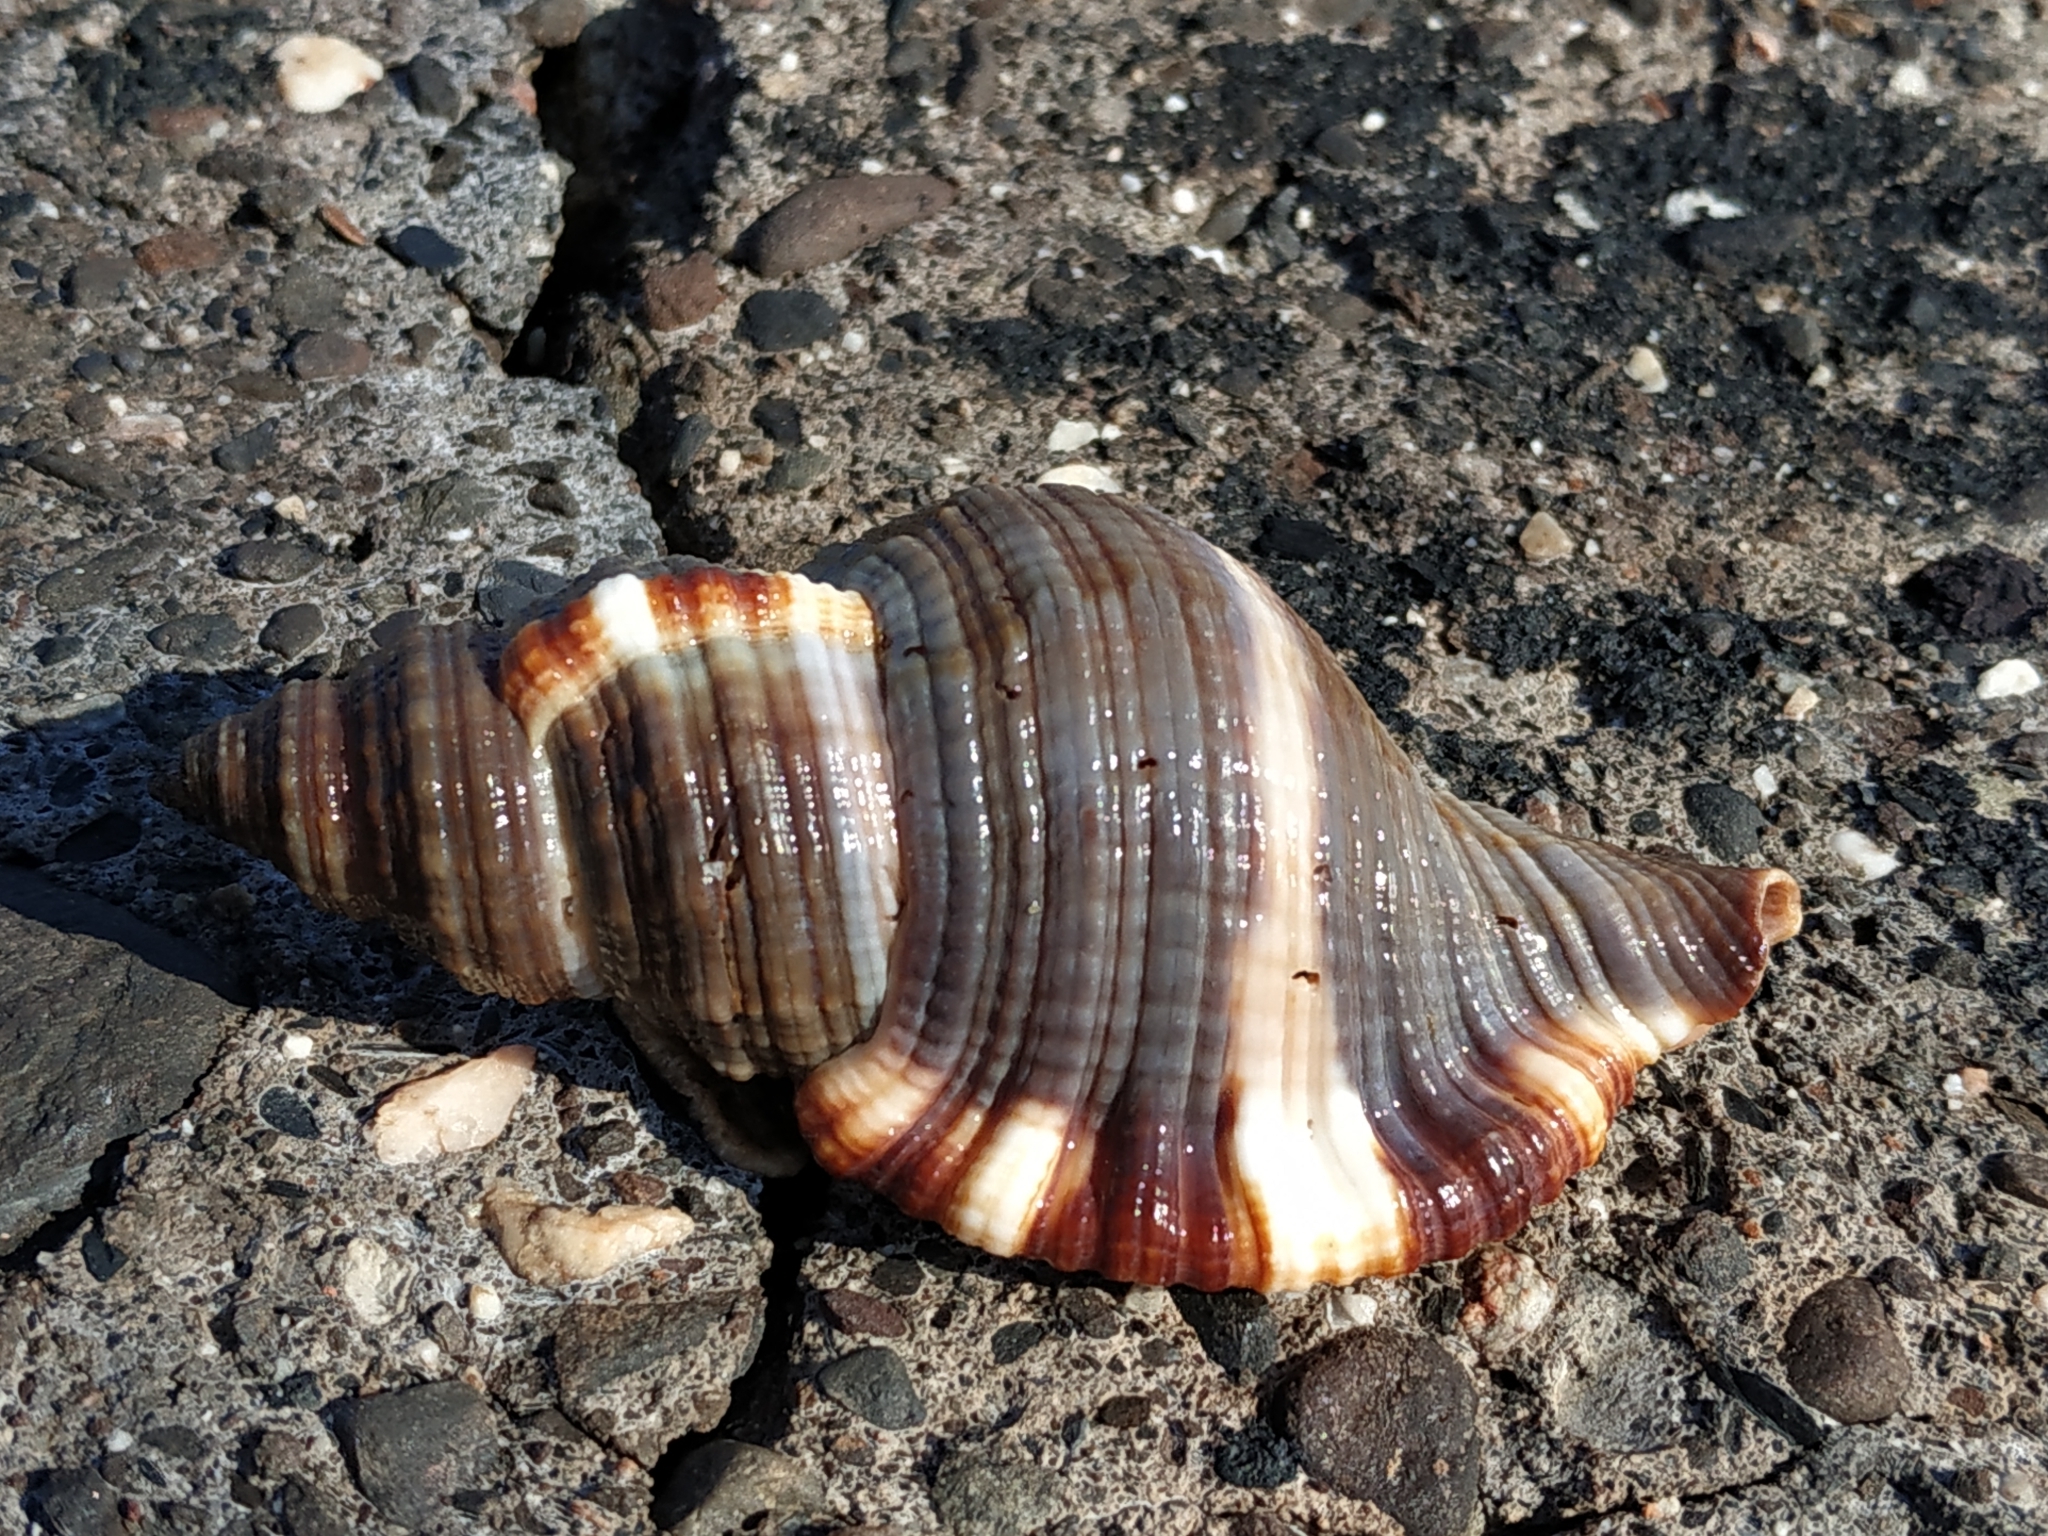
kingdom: Animalia
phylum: Mollusca
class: Gastropoda
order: Littorinimorpha
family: Cymatiidae
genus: Monoplex
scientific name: Monoplex pilearis
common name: Hairy triton
